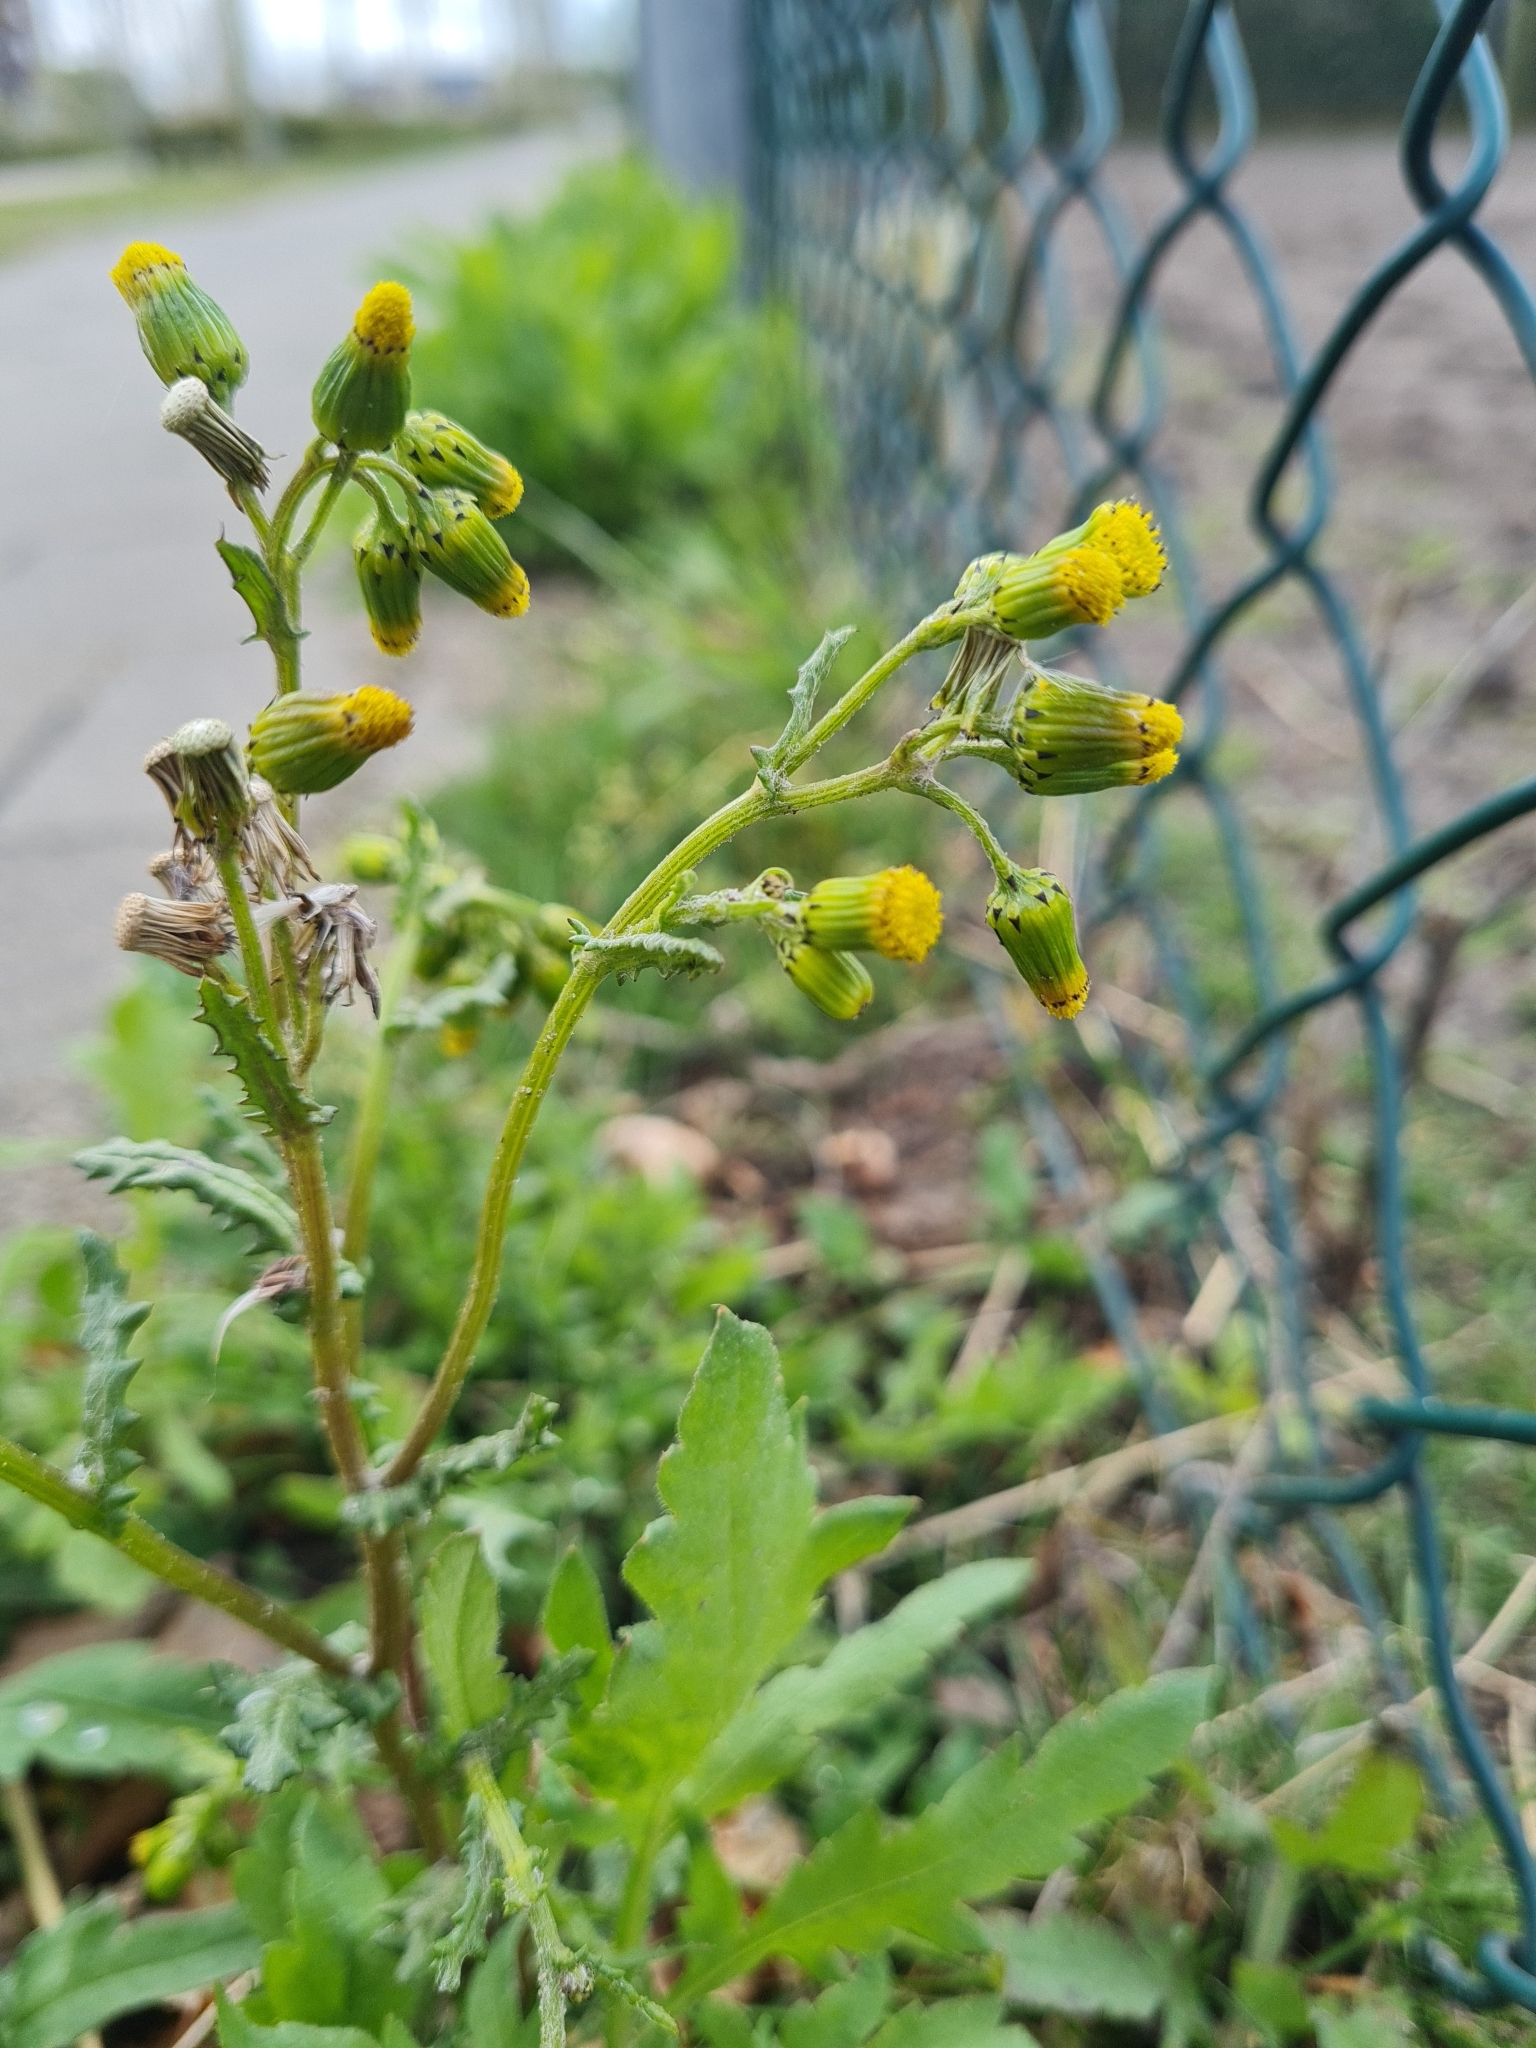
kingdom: Plantae
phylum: Tracheophyta
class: Magnoliopsida
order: Asterales
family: Asteraceae
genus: Senecio
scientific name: Senecio vulgaris
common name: Old-man-in-the-spring
